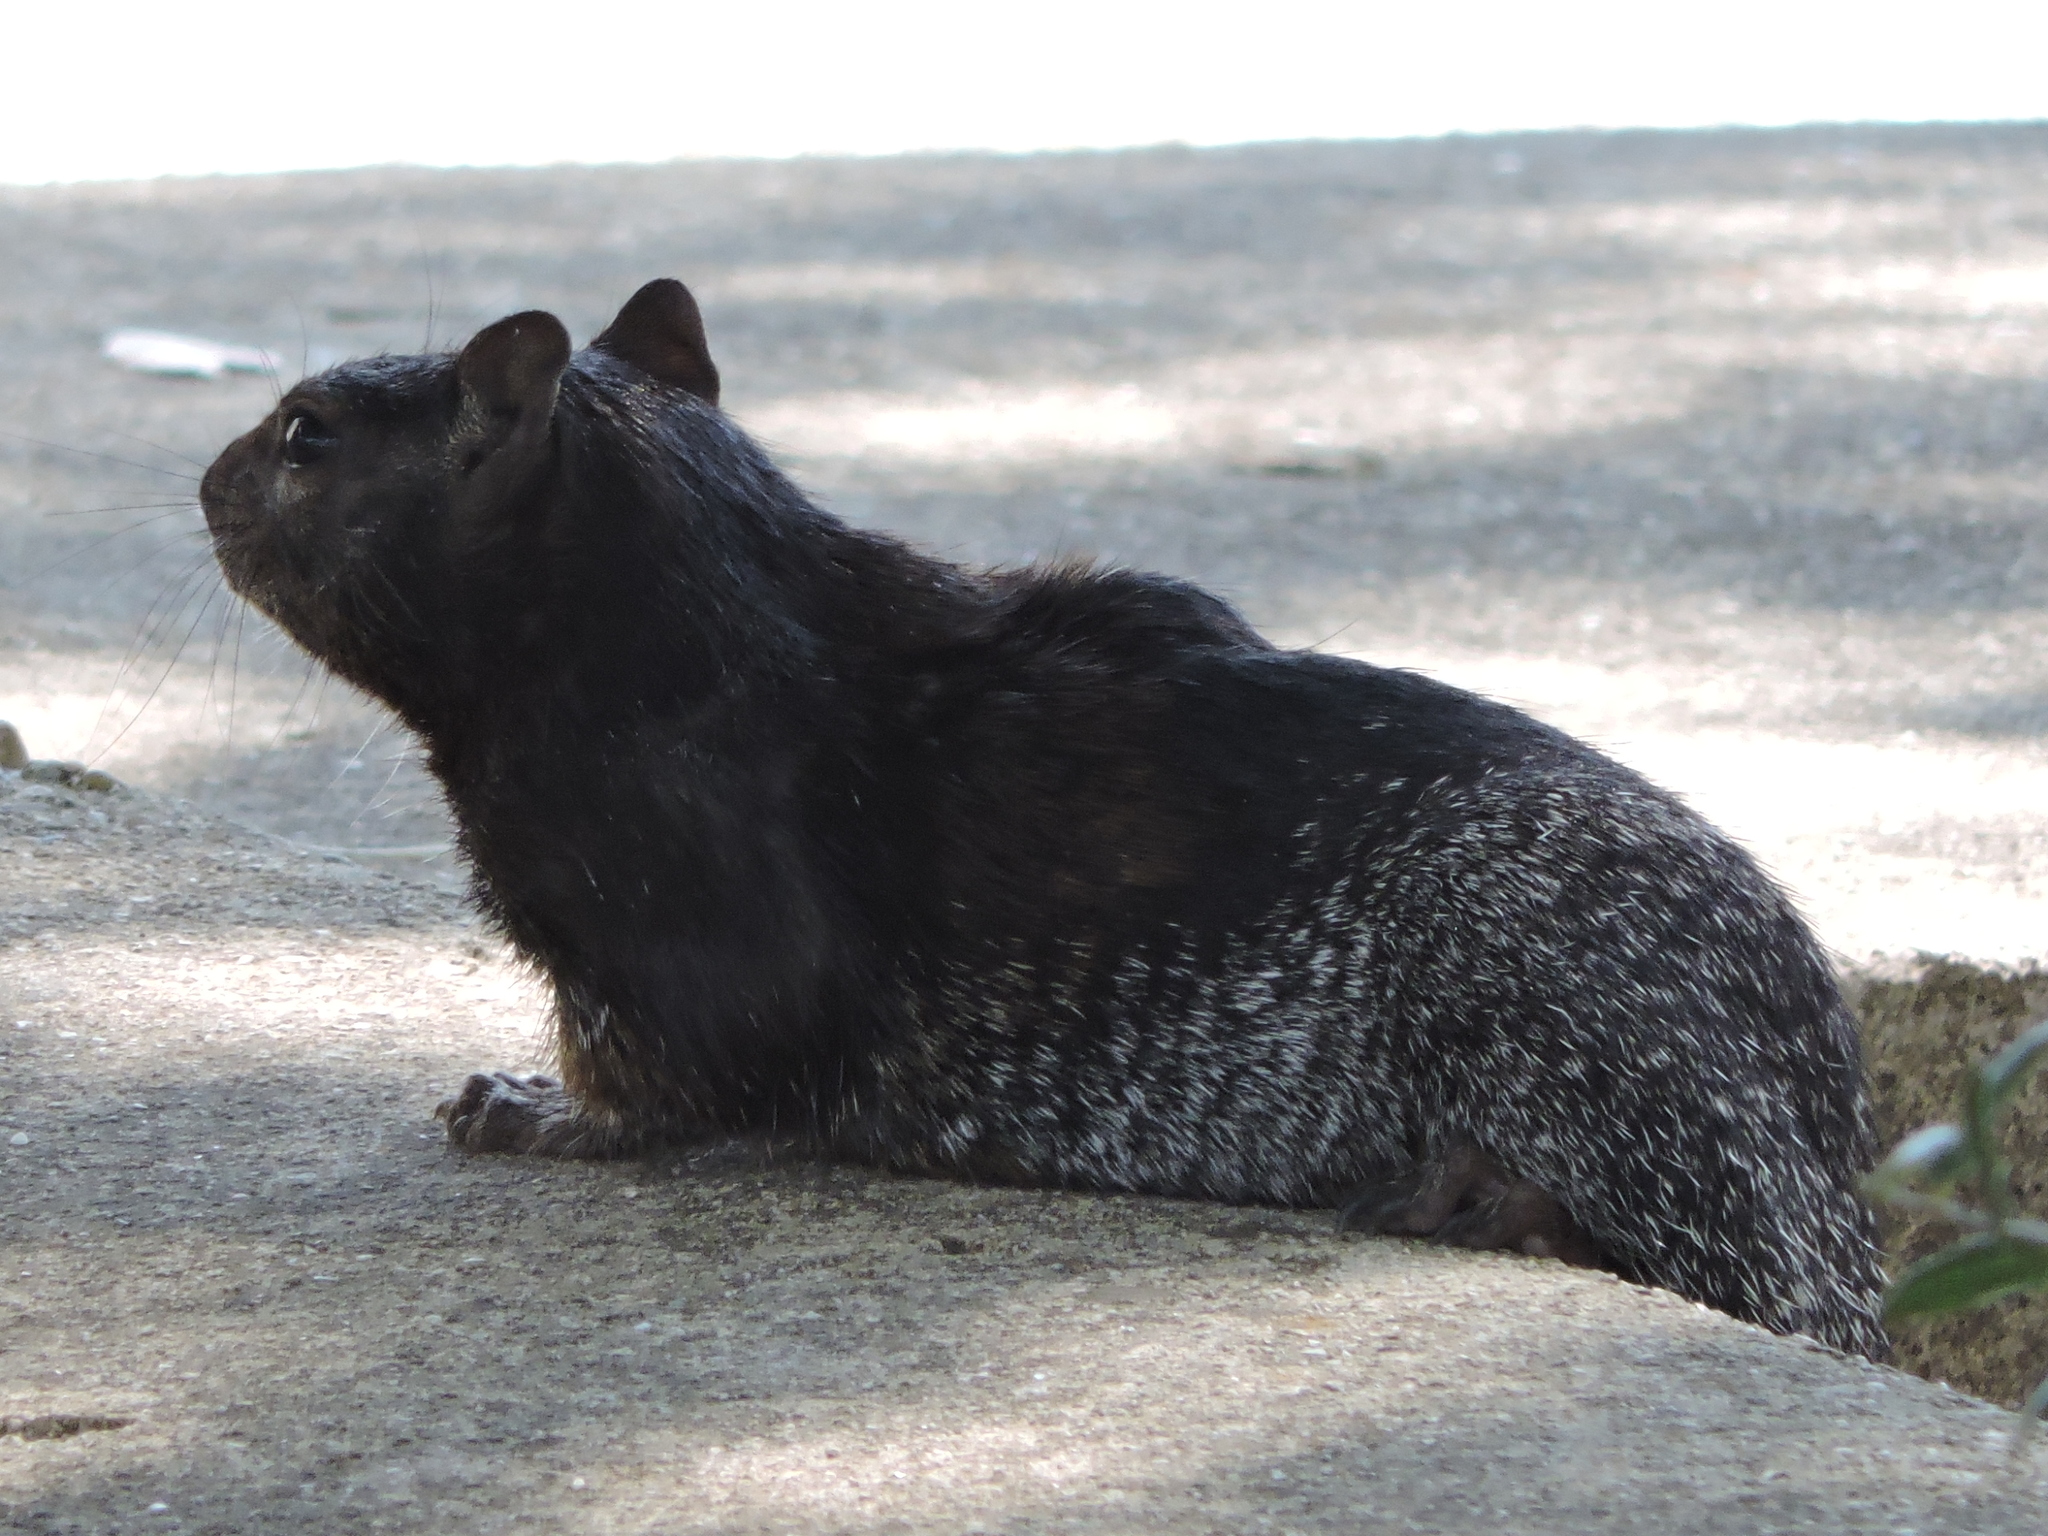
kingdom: Animalia
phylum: Chordata
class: Mammalia
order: Rodentia
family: Sciuridae
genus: Otospermophilus
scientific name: Otospermophilus variegatus
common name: Rock squirrel
